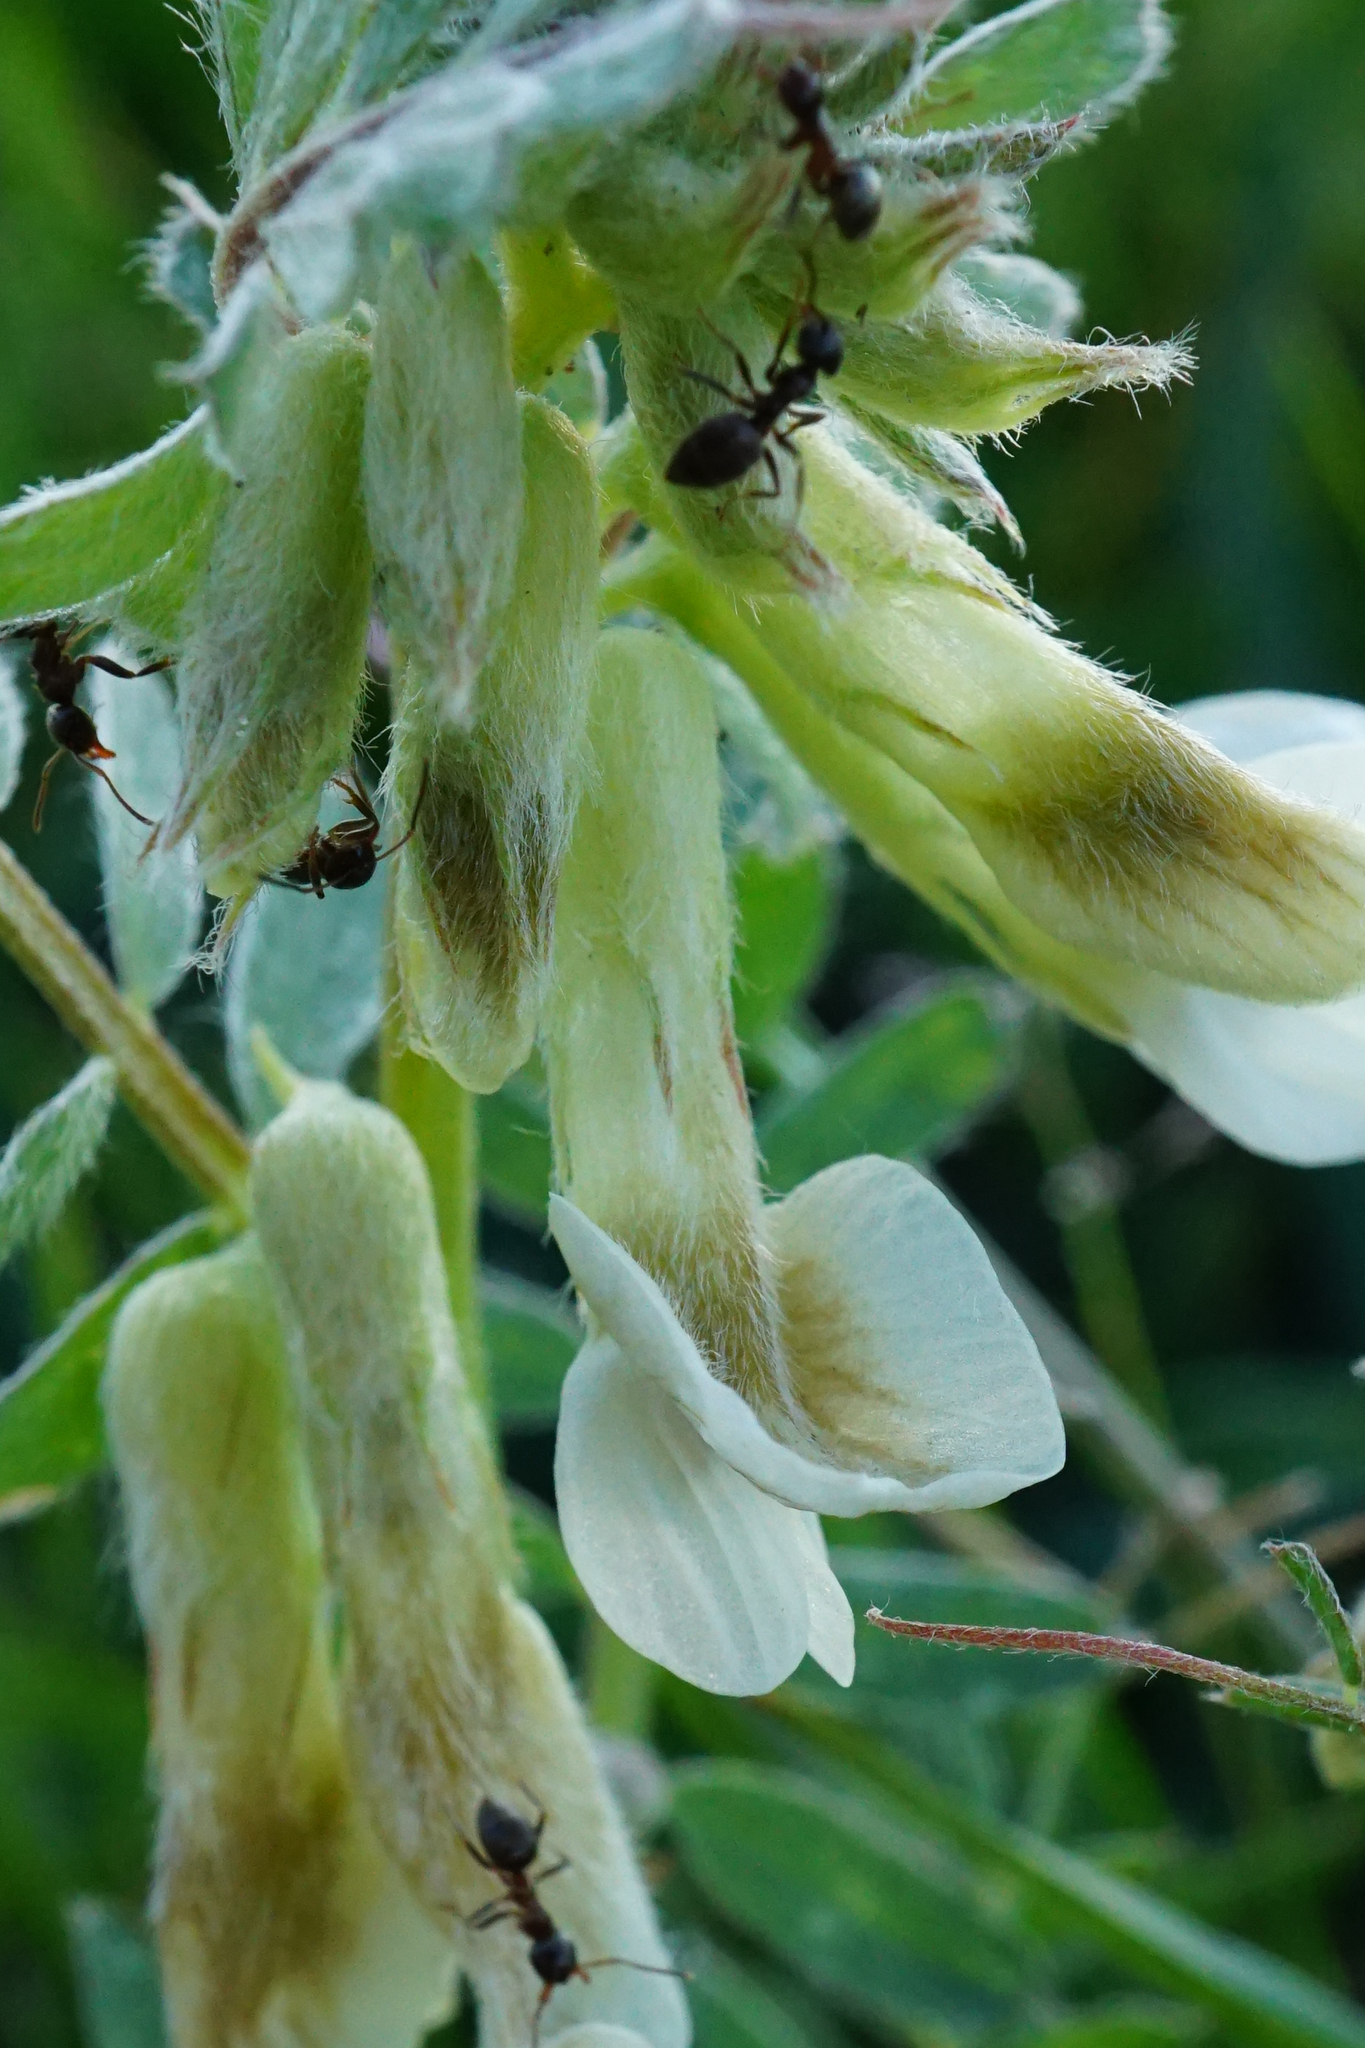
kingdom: Plantae
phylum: Tracheophyta
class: Magnoliopsida
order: Fabales
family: Fabaceae
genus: Vicia
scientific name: Vicia pannonica
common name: Hungarian vetch
